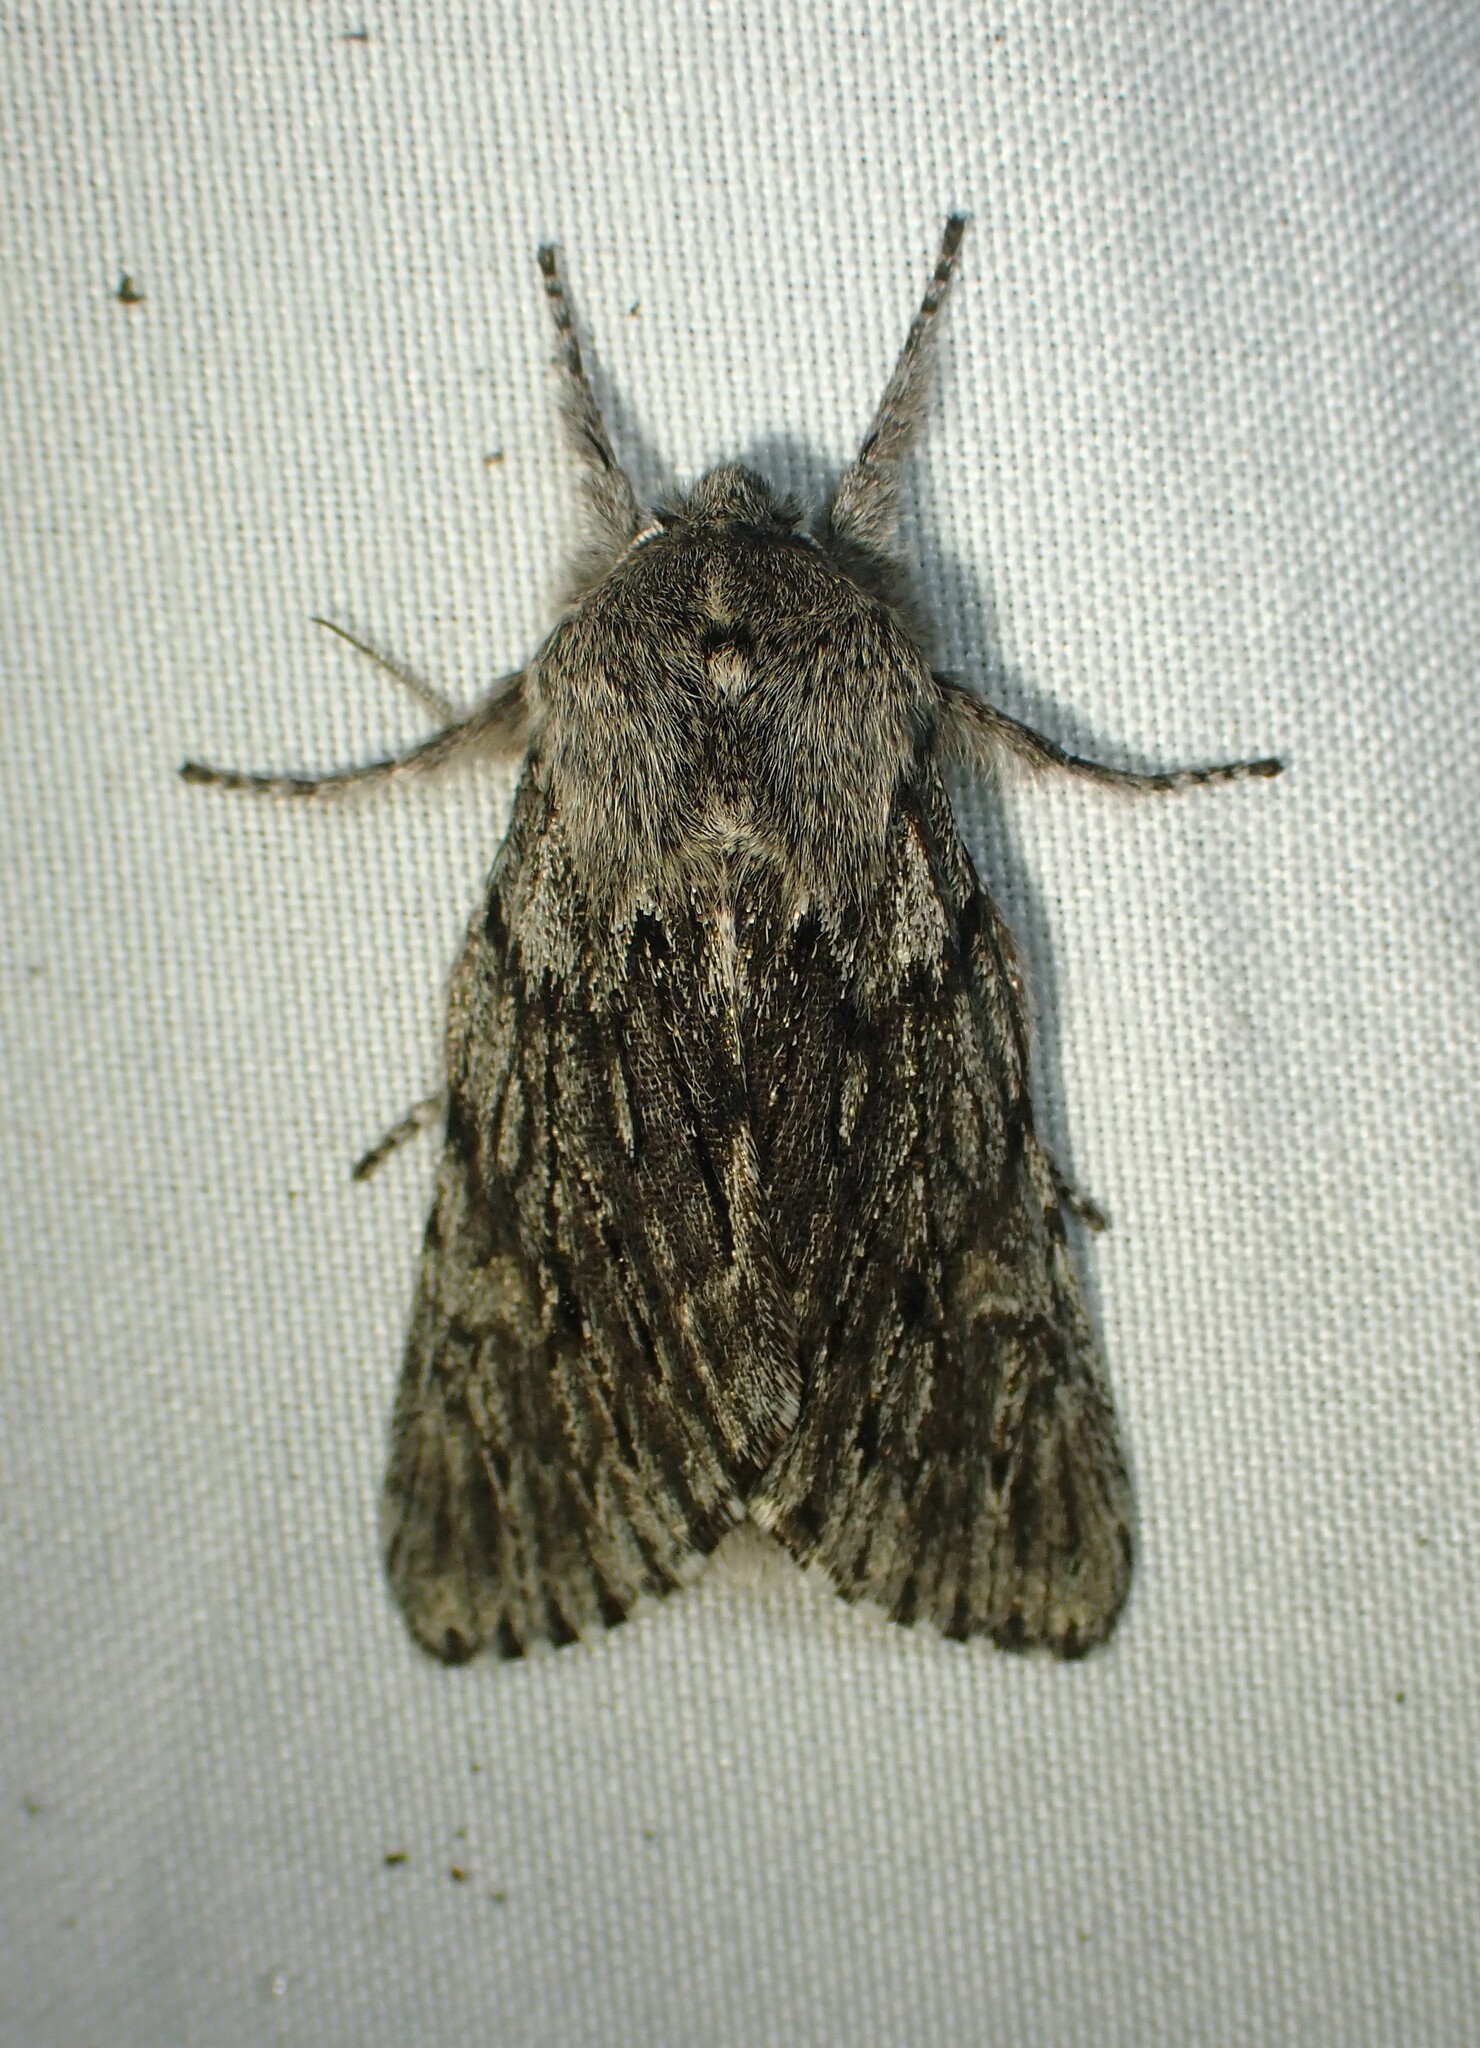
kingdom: Animalia
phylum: Arthropoda
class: Insecta
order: Lepidoptera
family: Noctuidae
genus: Brachionycha
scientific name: Brachionycha borealis
